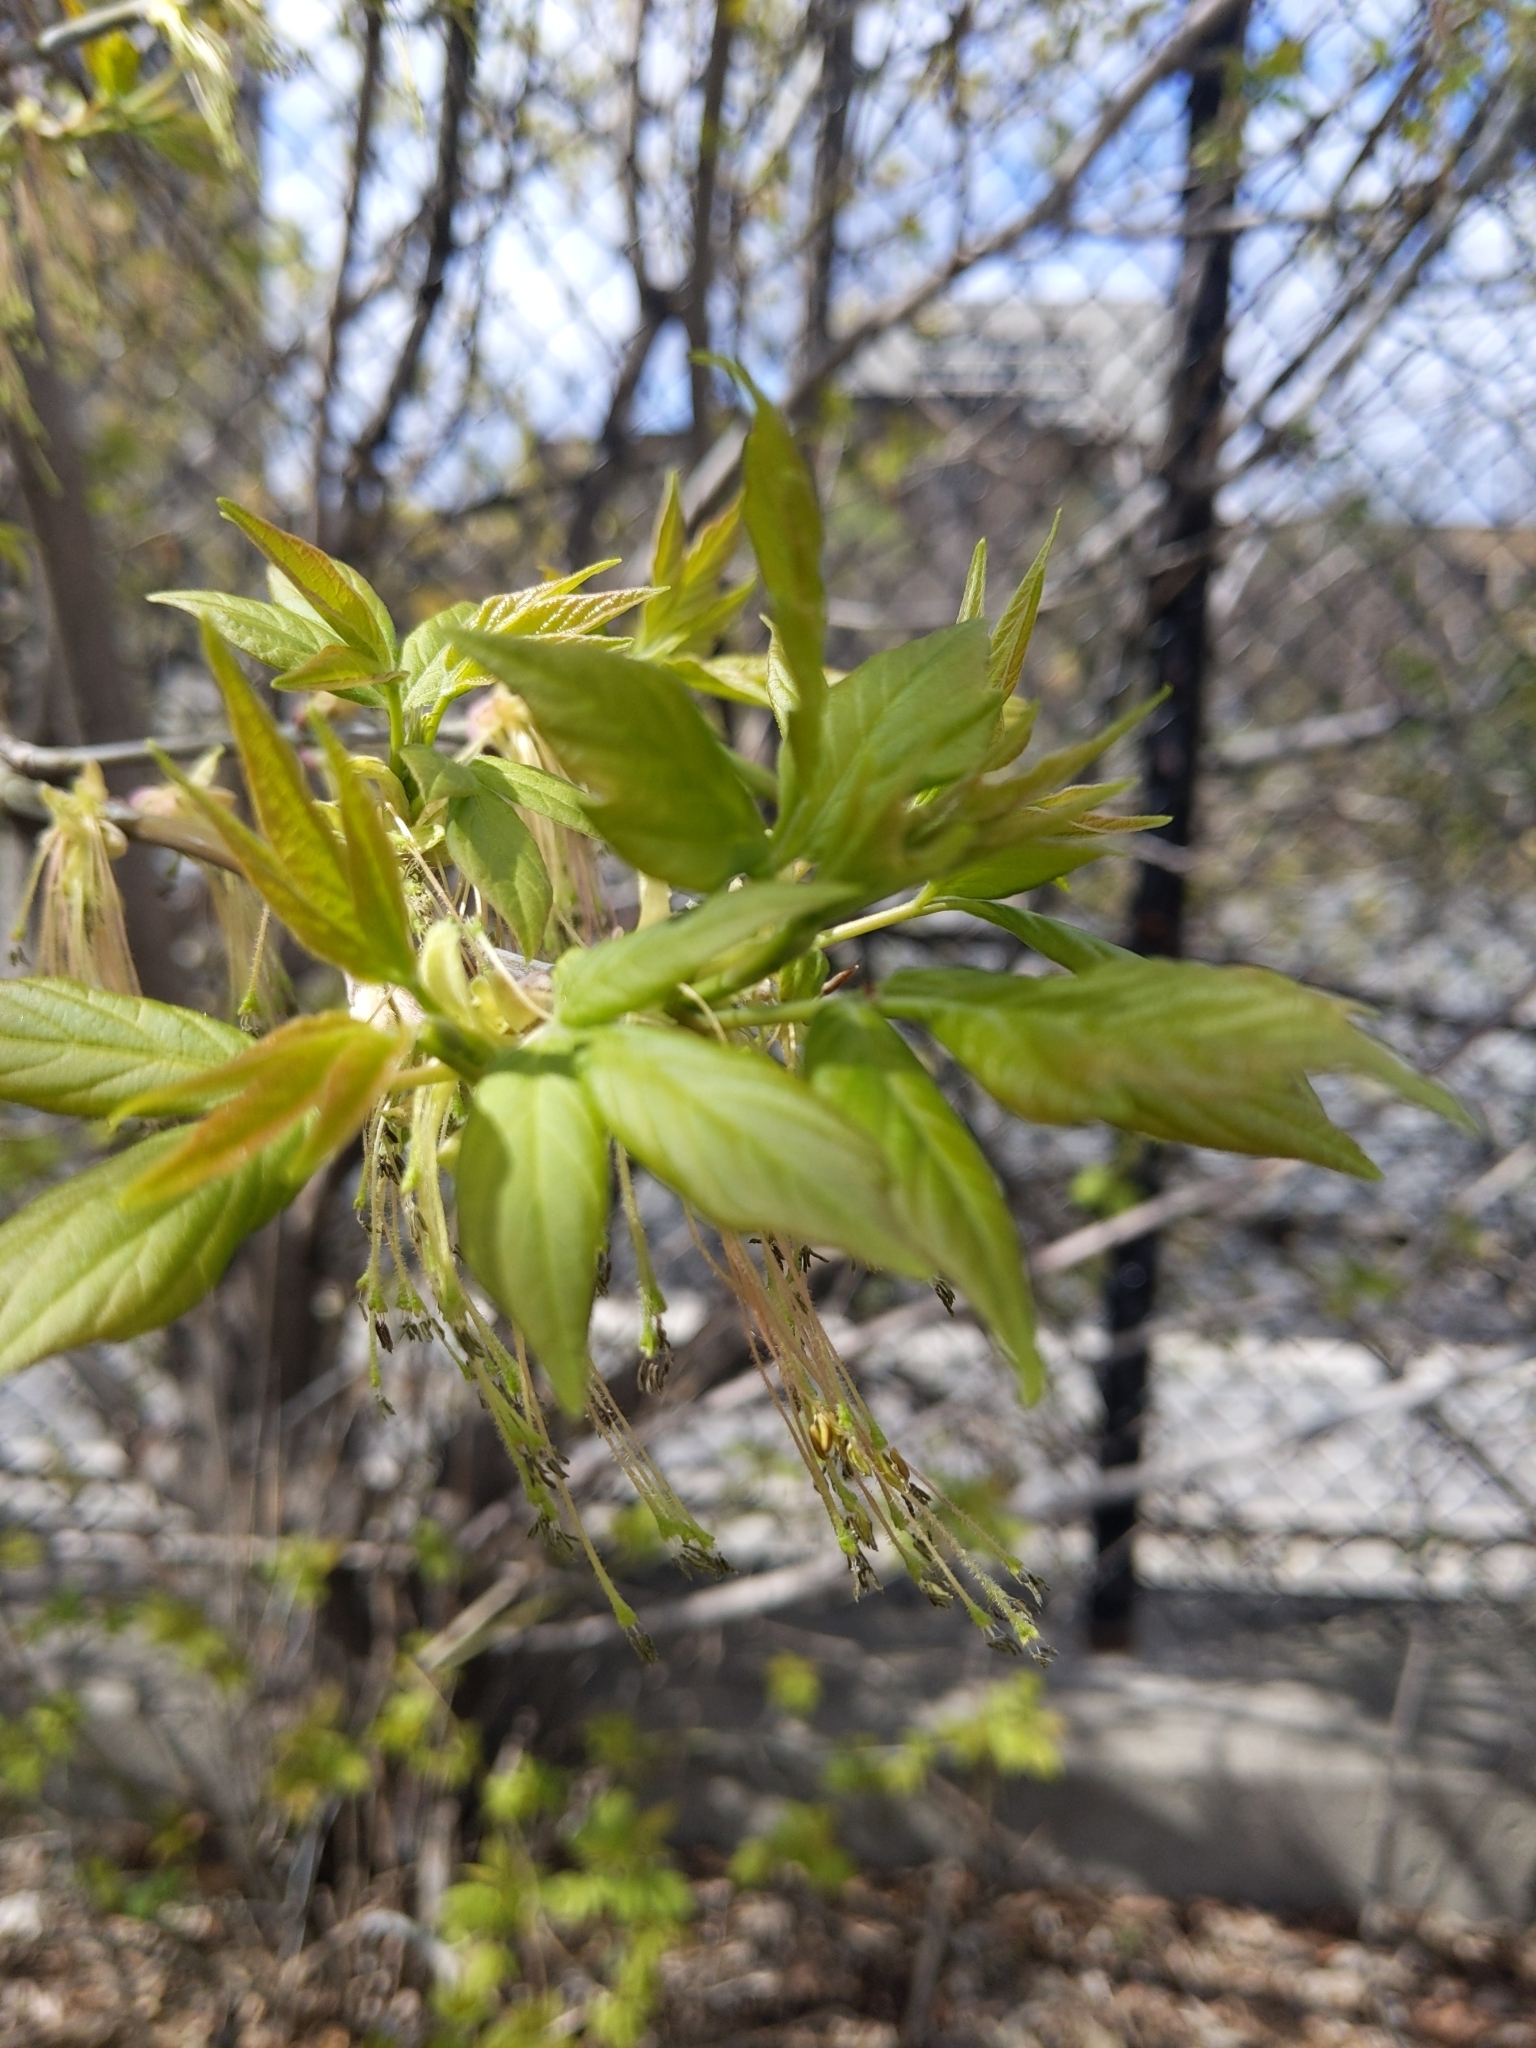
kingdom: Plantae
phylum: Tracheophyta
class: Magnoliopsida
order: Sapindales
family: Sapindaceae
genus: Acer
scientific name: Acer negundo
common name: Ashleaf maple
